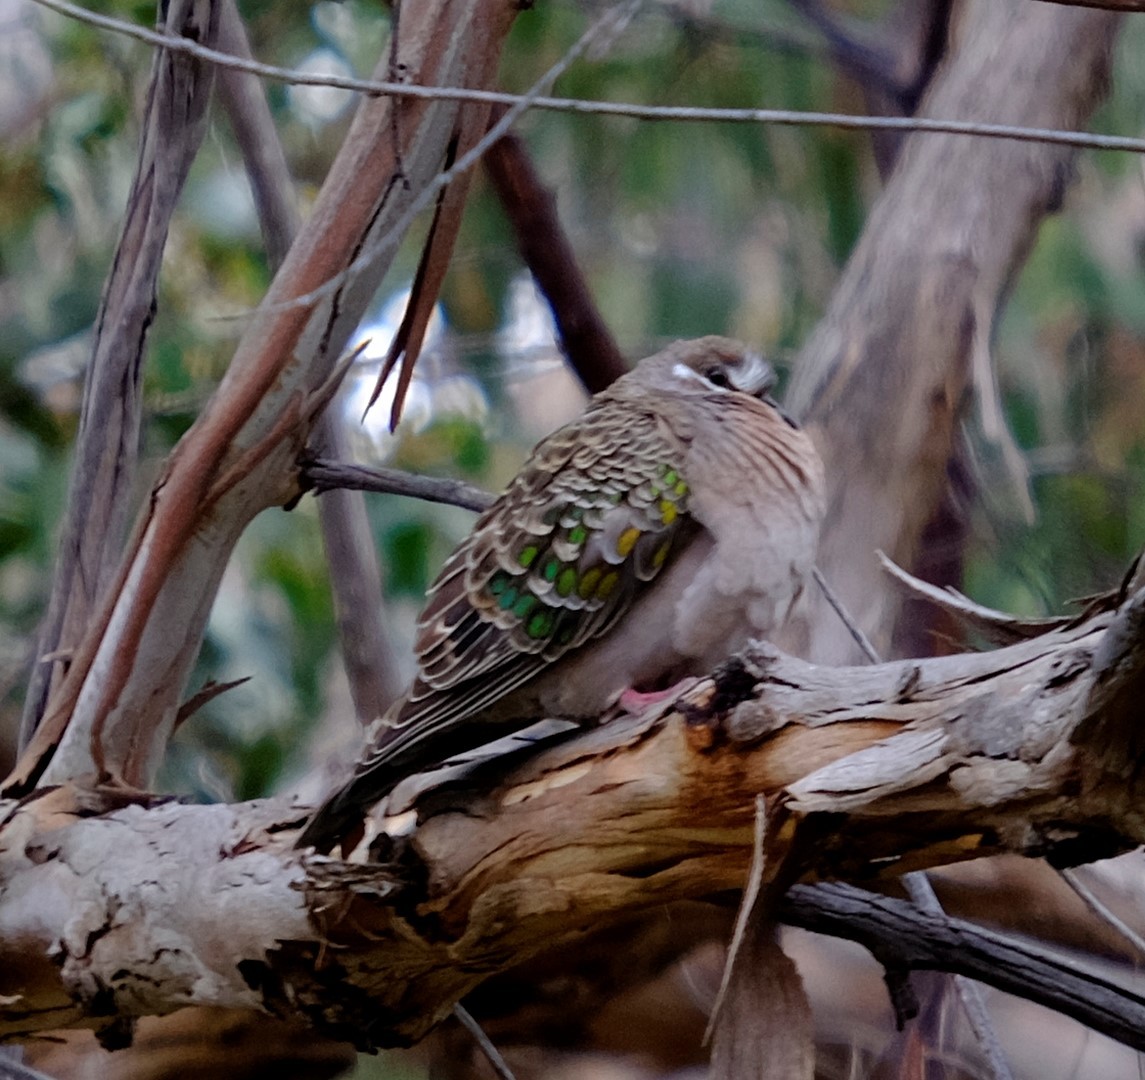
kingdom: Animalia
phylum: Chordata
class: Aves
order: Columbiformes
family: Columbidae
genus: Phaps
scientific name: Phaps chalcoptera
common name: Common bronzewing
